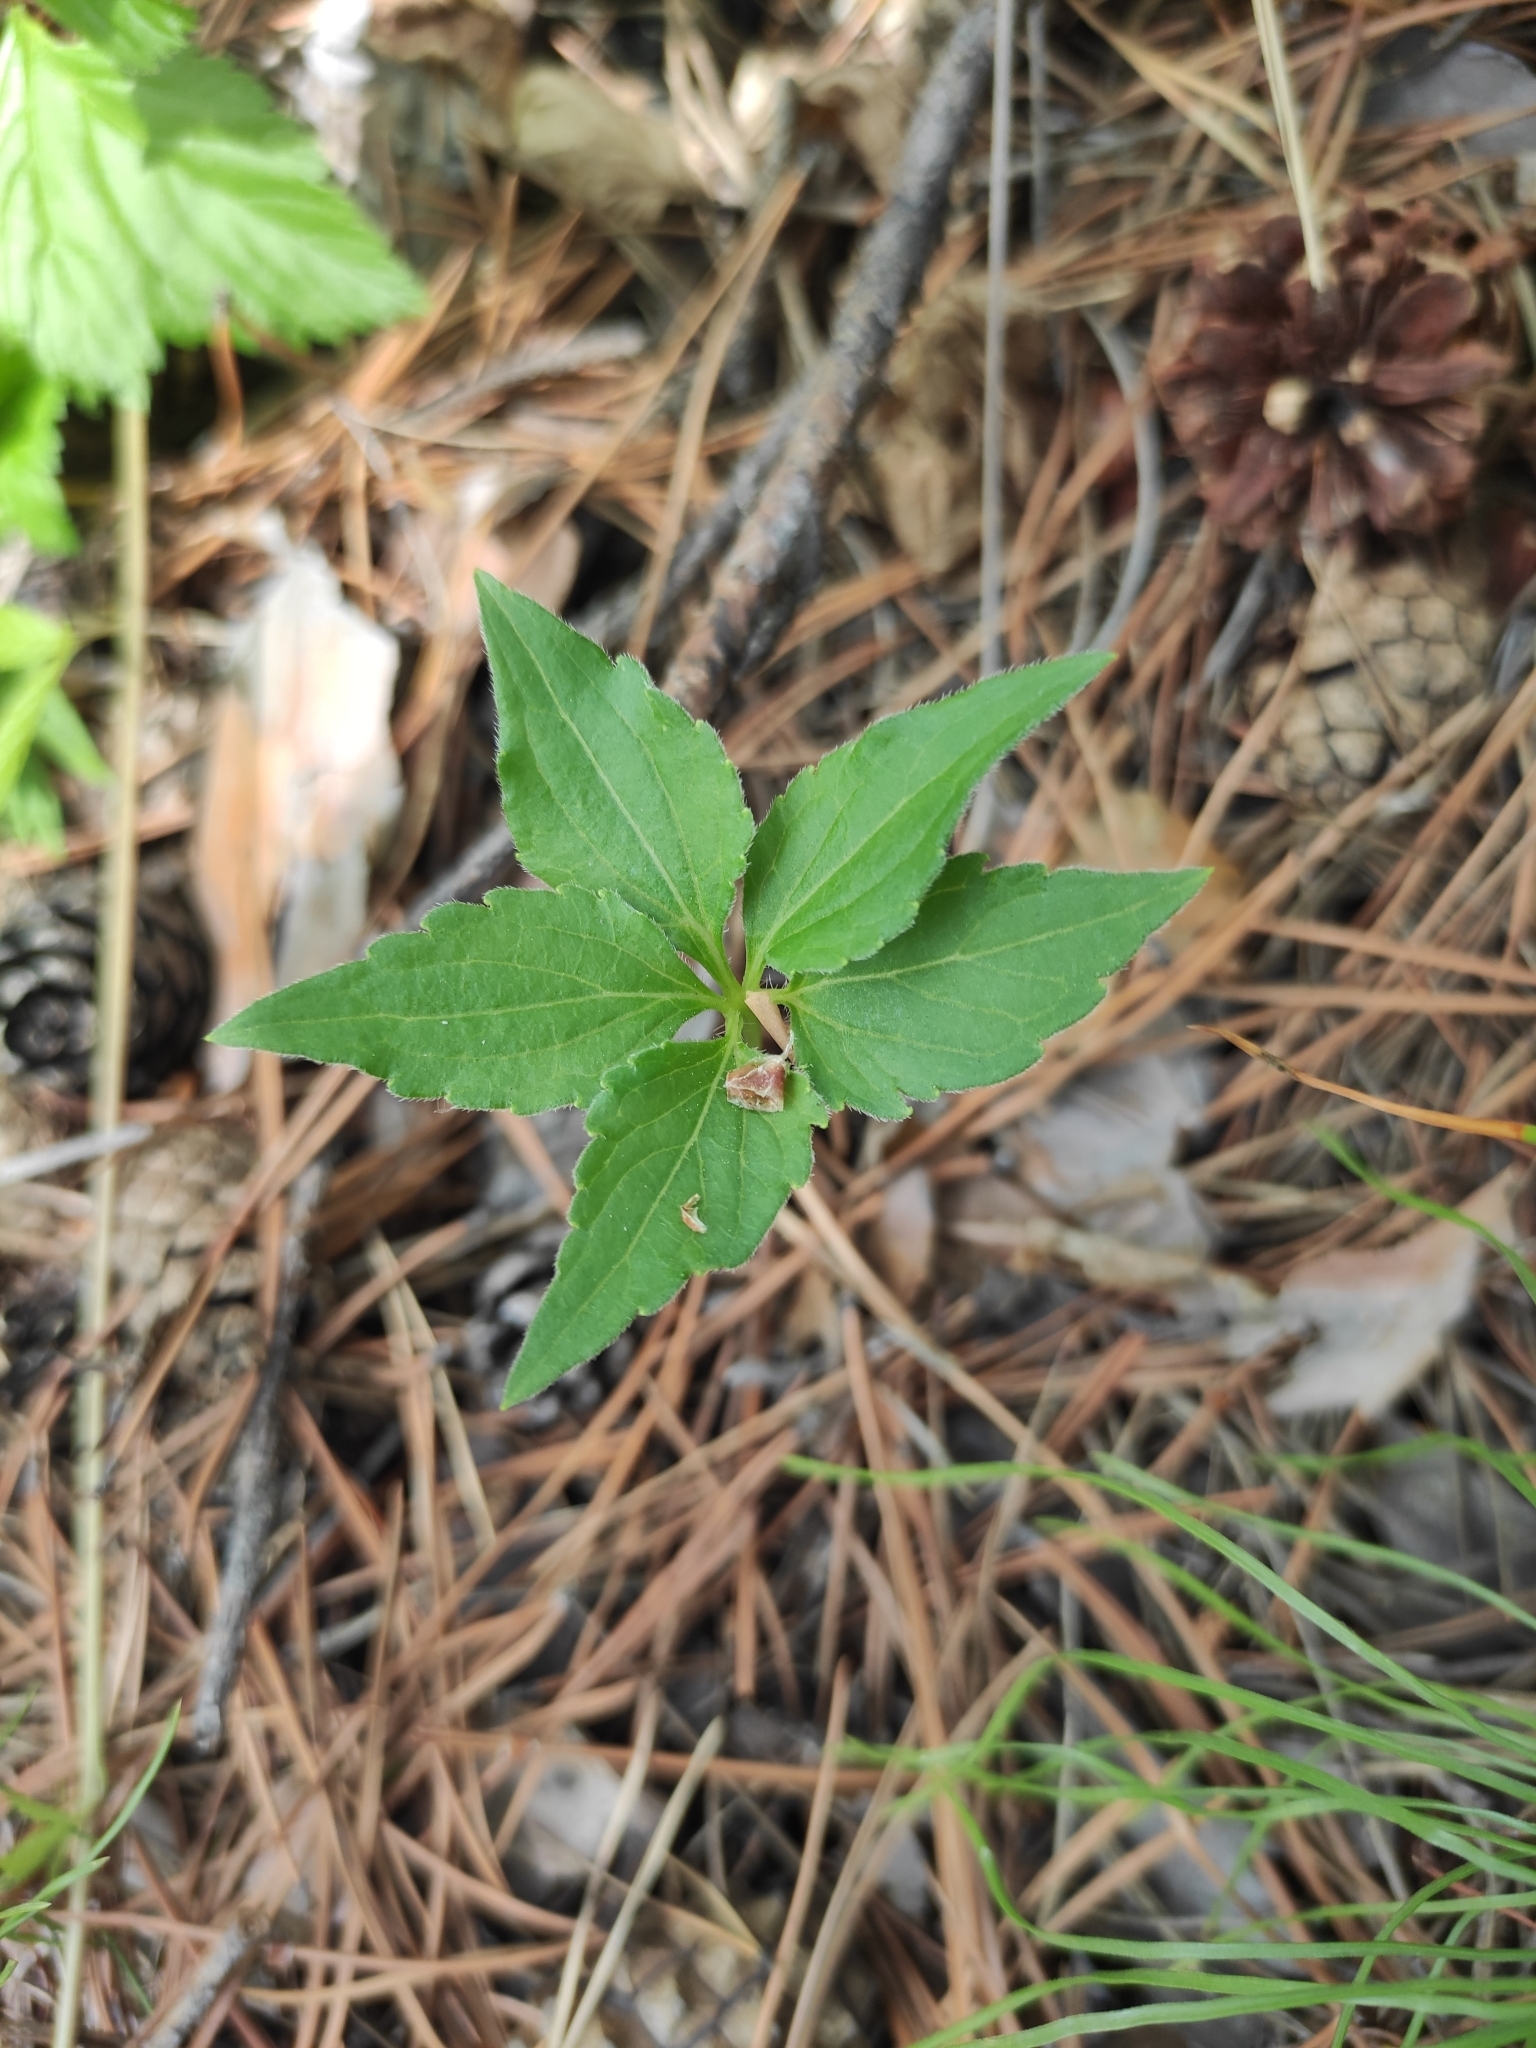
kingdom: Plantae
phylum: Tracheophyta
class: Magnoliopsida
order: Malpighiales
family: Violaceae
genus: Viola
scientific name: Viola dactyloides
